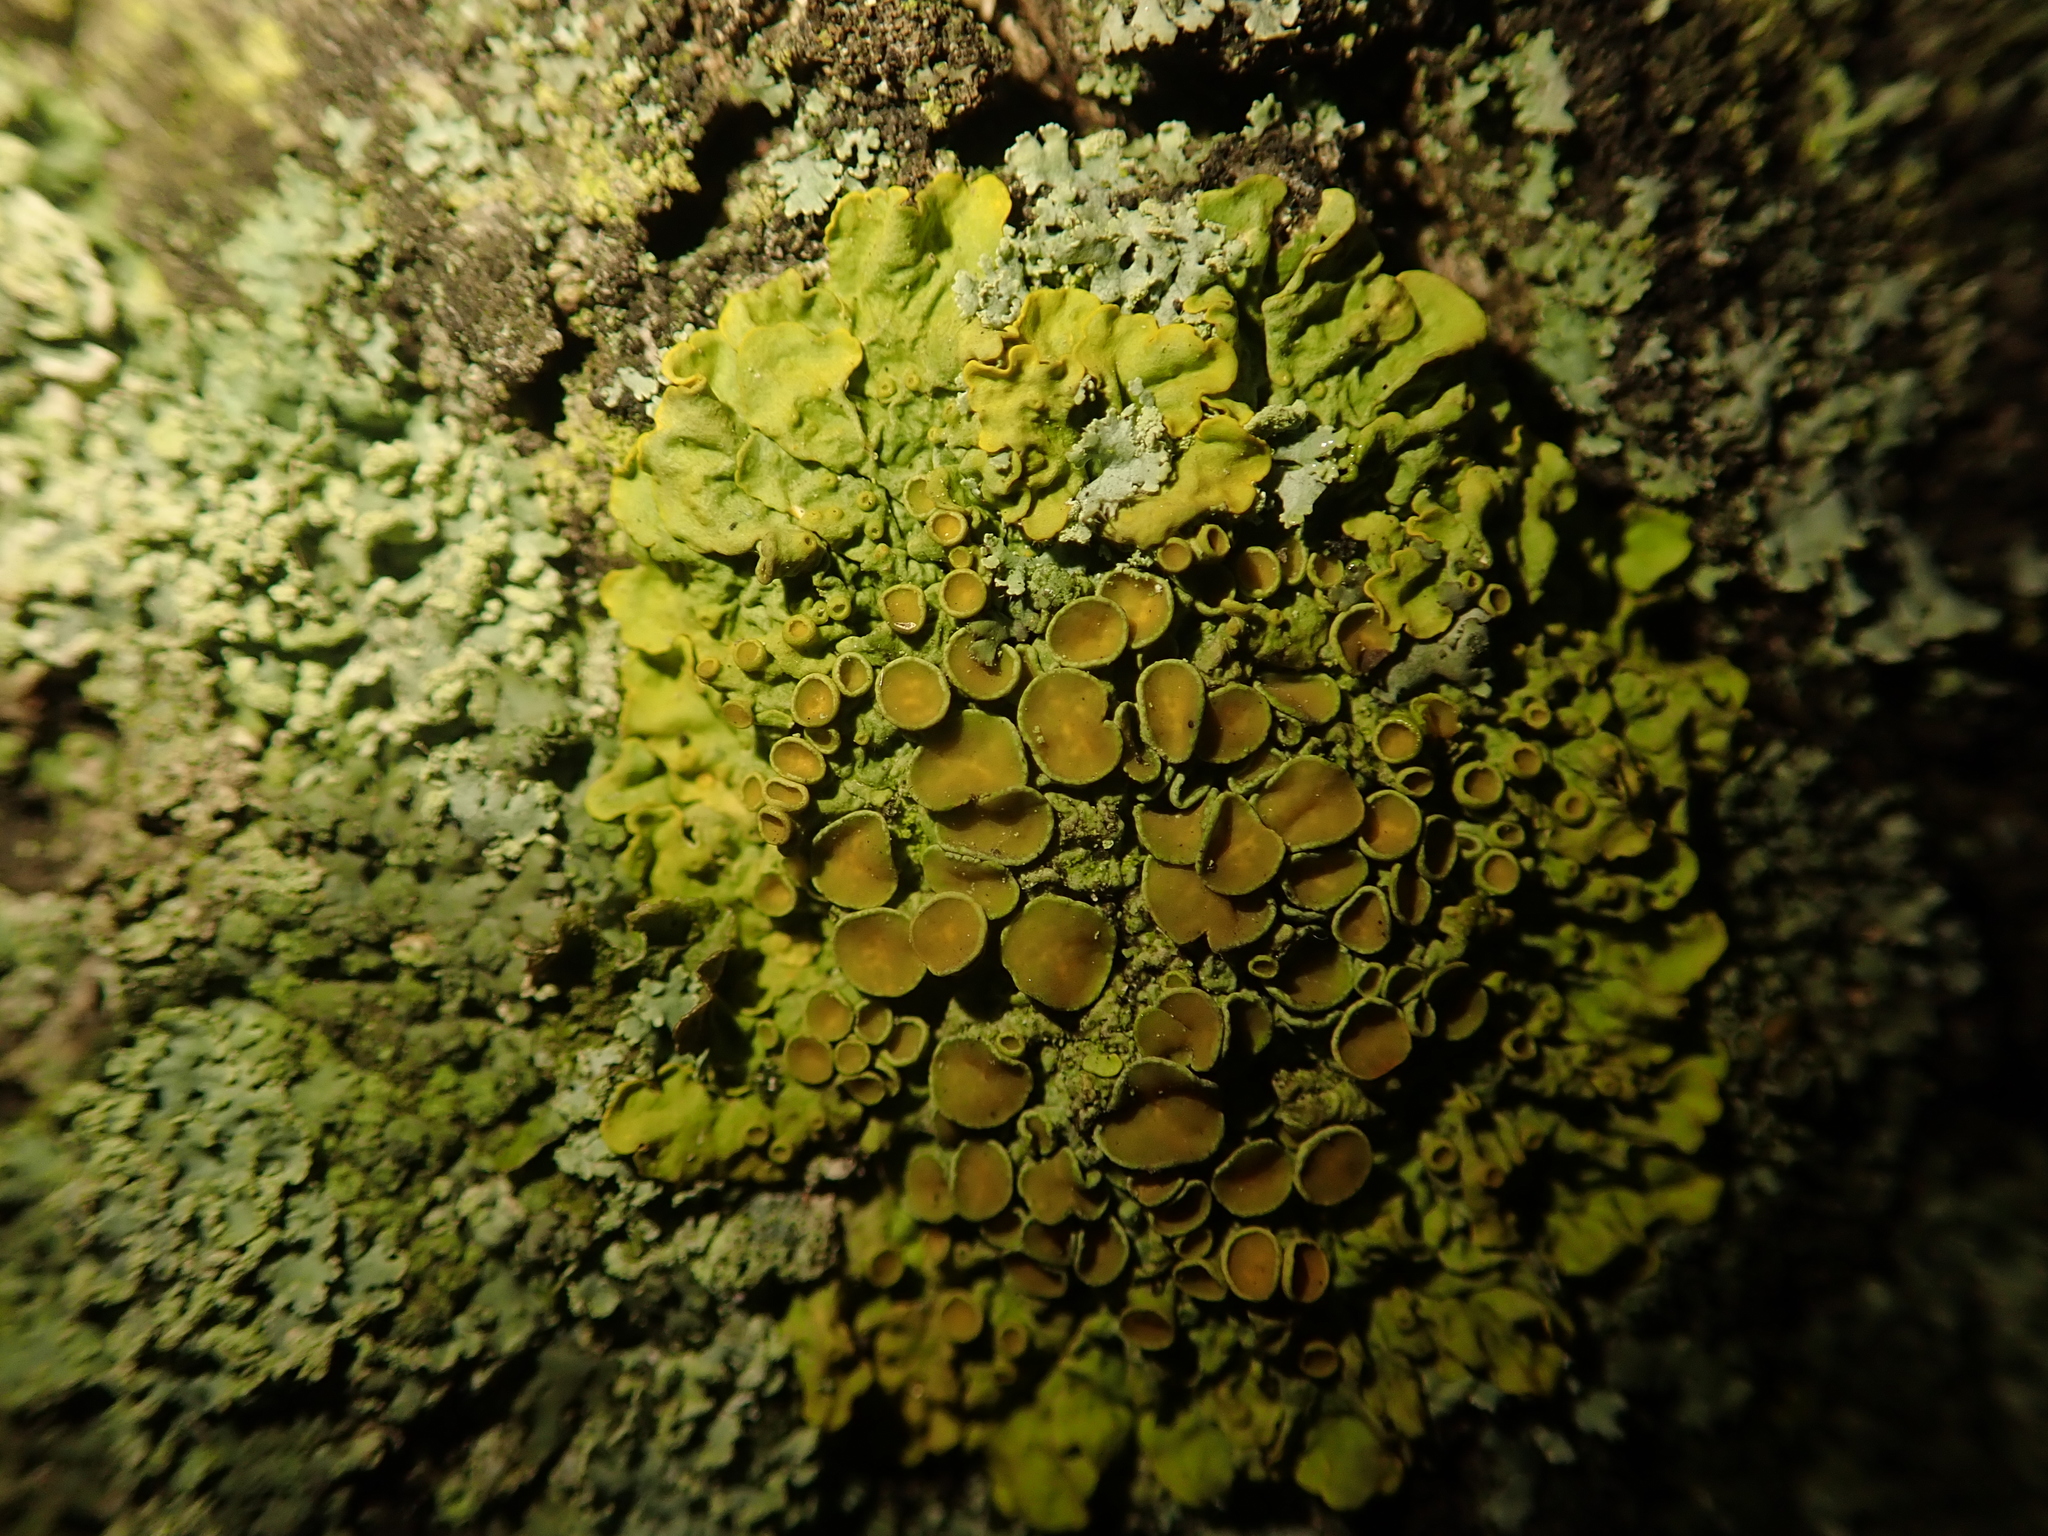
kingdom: Fungi
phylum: Ascomycota
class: Lecanoromycetes
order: Teloschistales
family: Teloschistaceae
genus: Xanthoria
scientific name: Xanthoria parietina
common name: Common orange lichen
